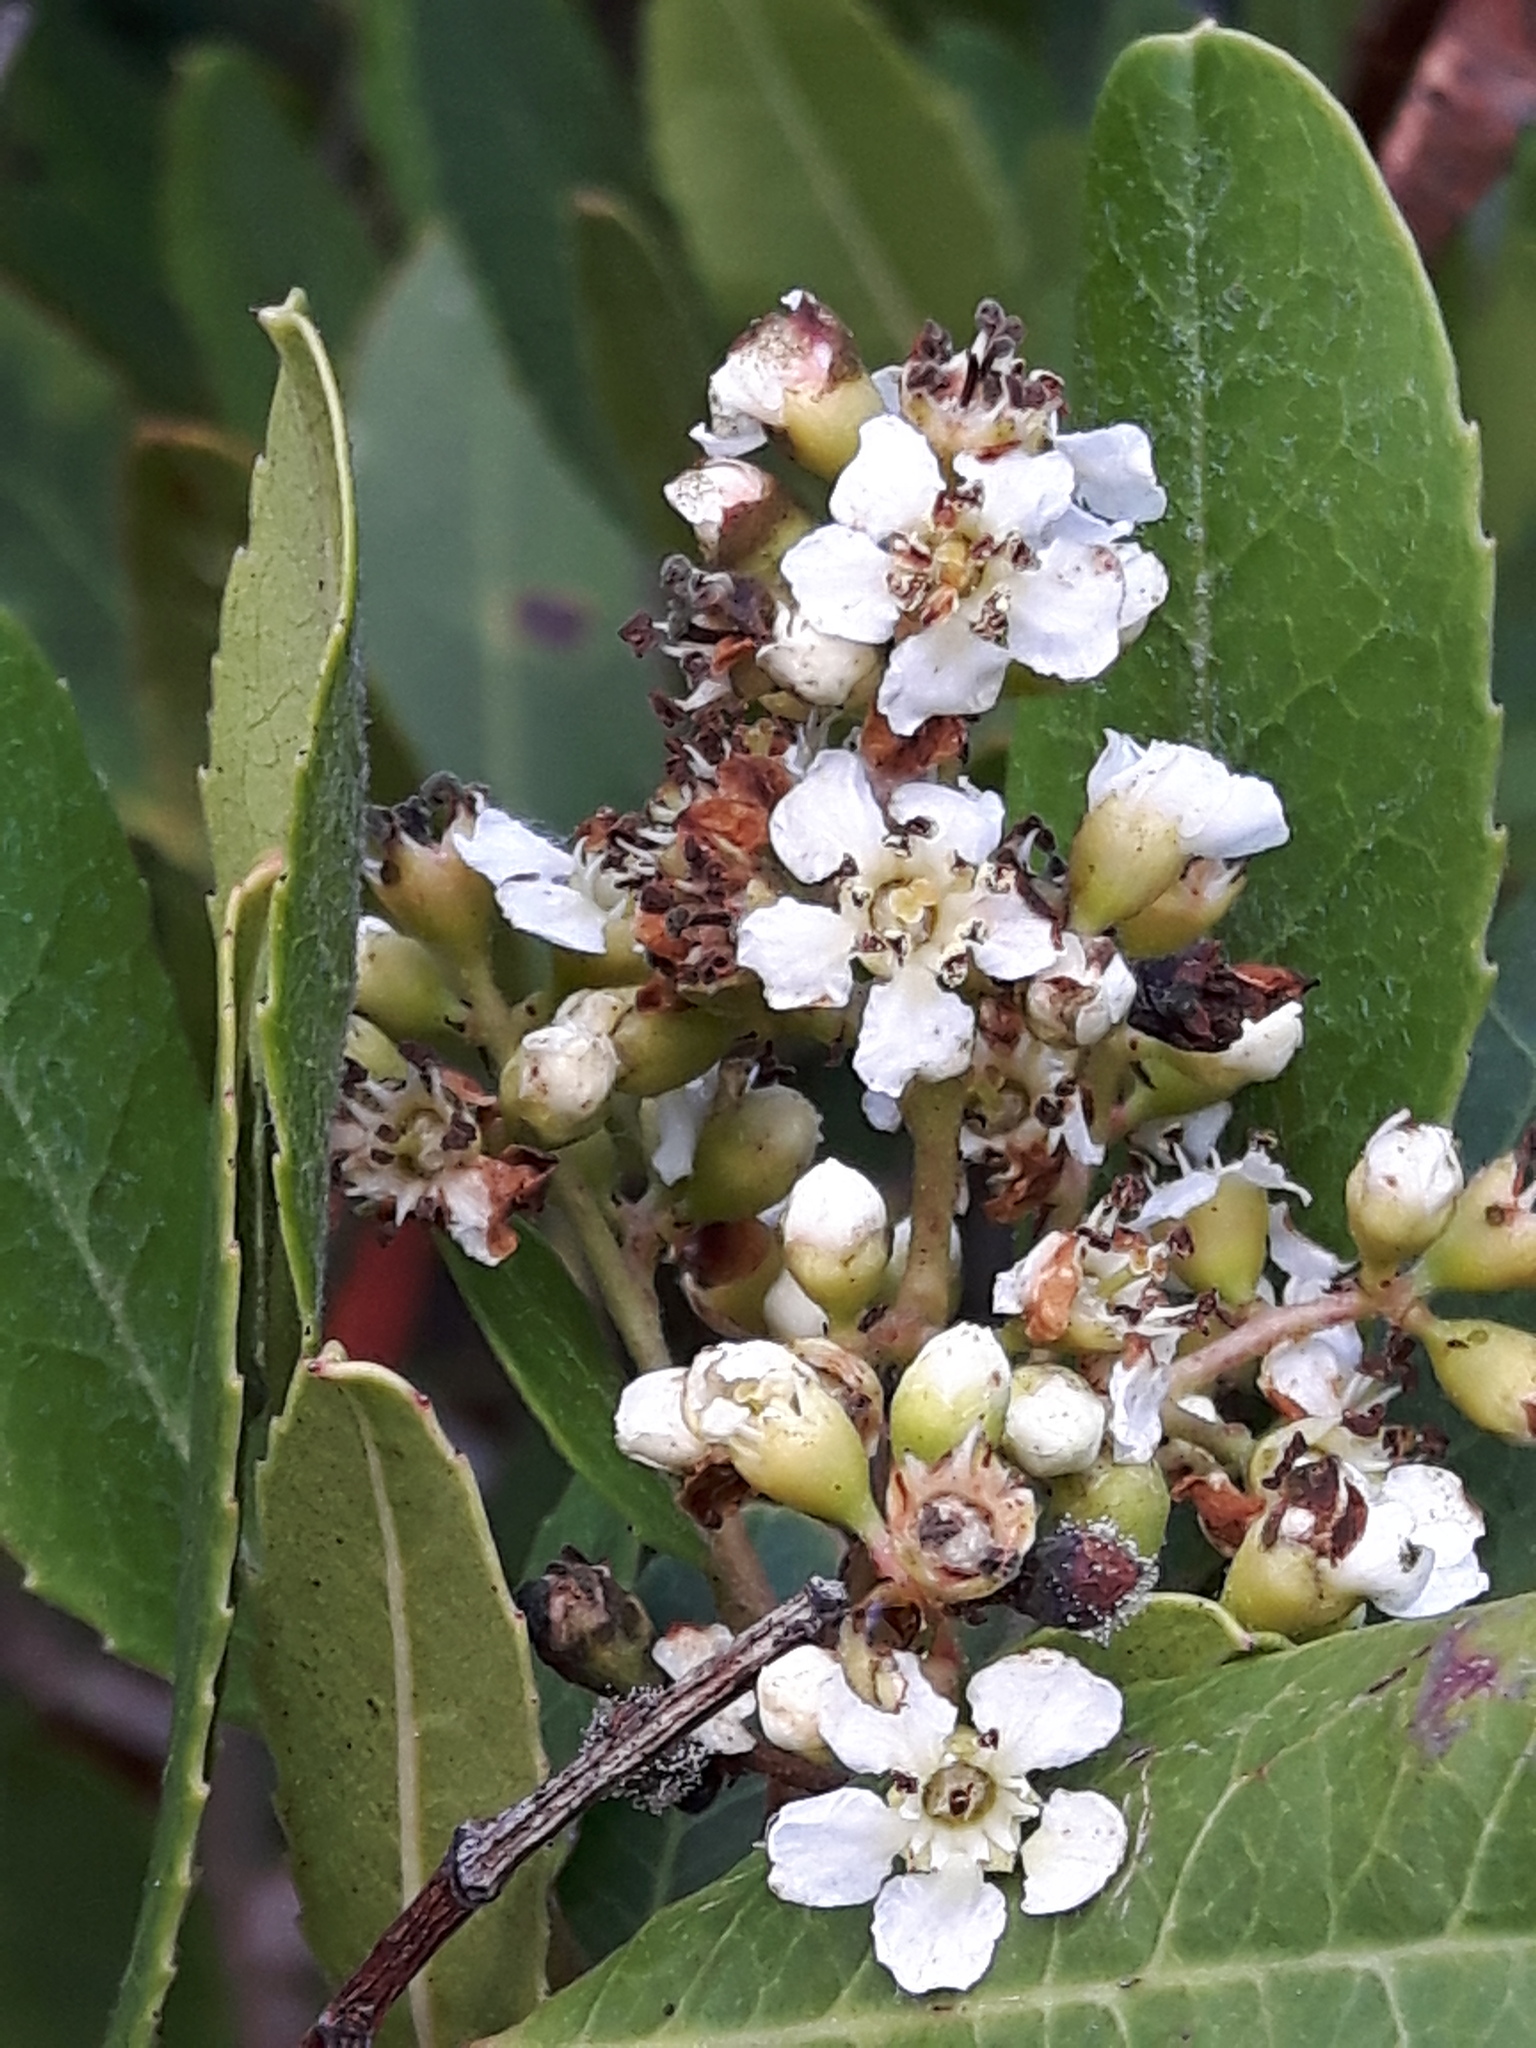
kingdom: Plantae
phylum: Tracheophyta
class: Magnoliopsida
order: Rosales
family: Rosaceae
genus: Heteromeles
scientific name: Heteromeles arbutifolia
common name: California-holly
